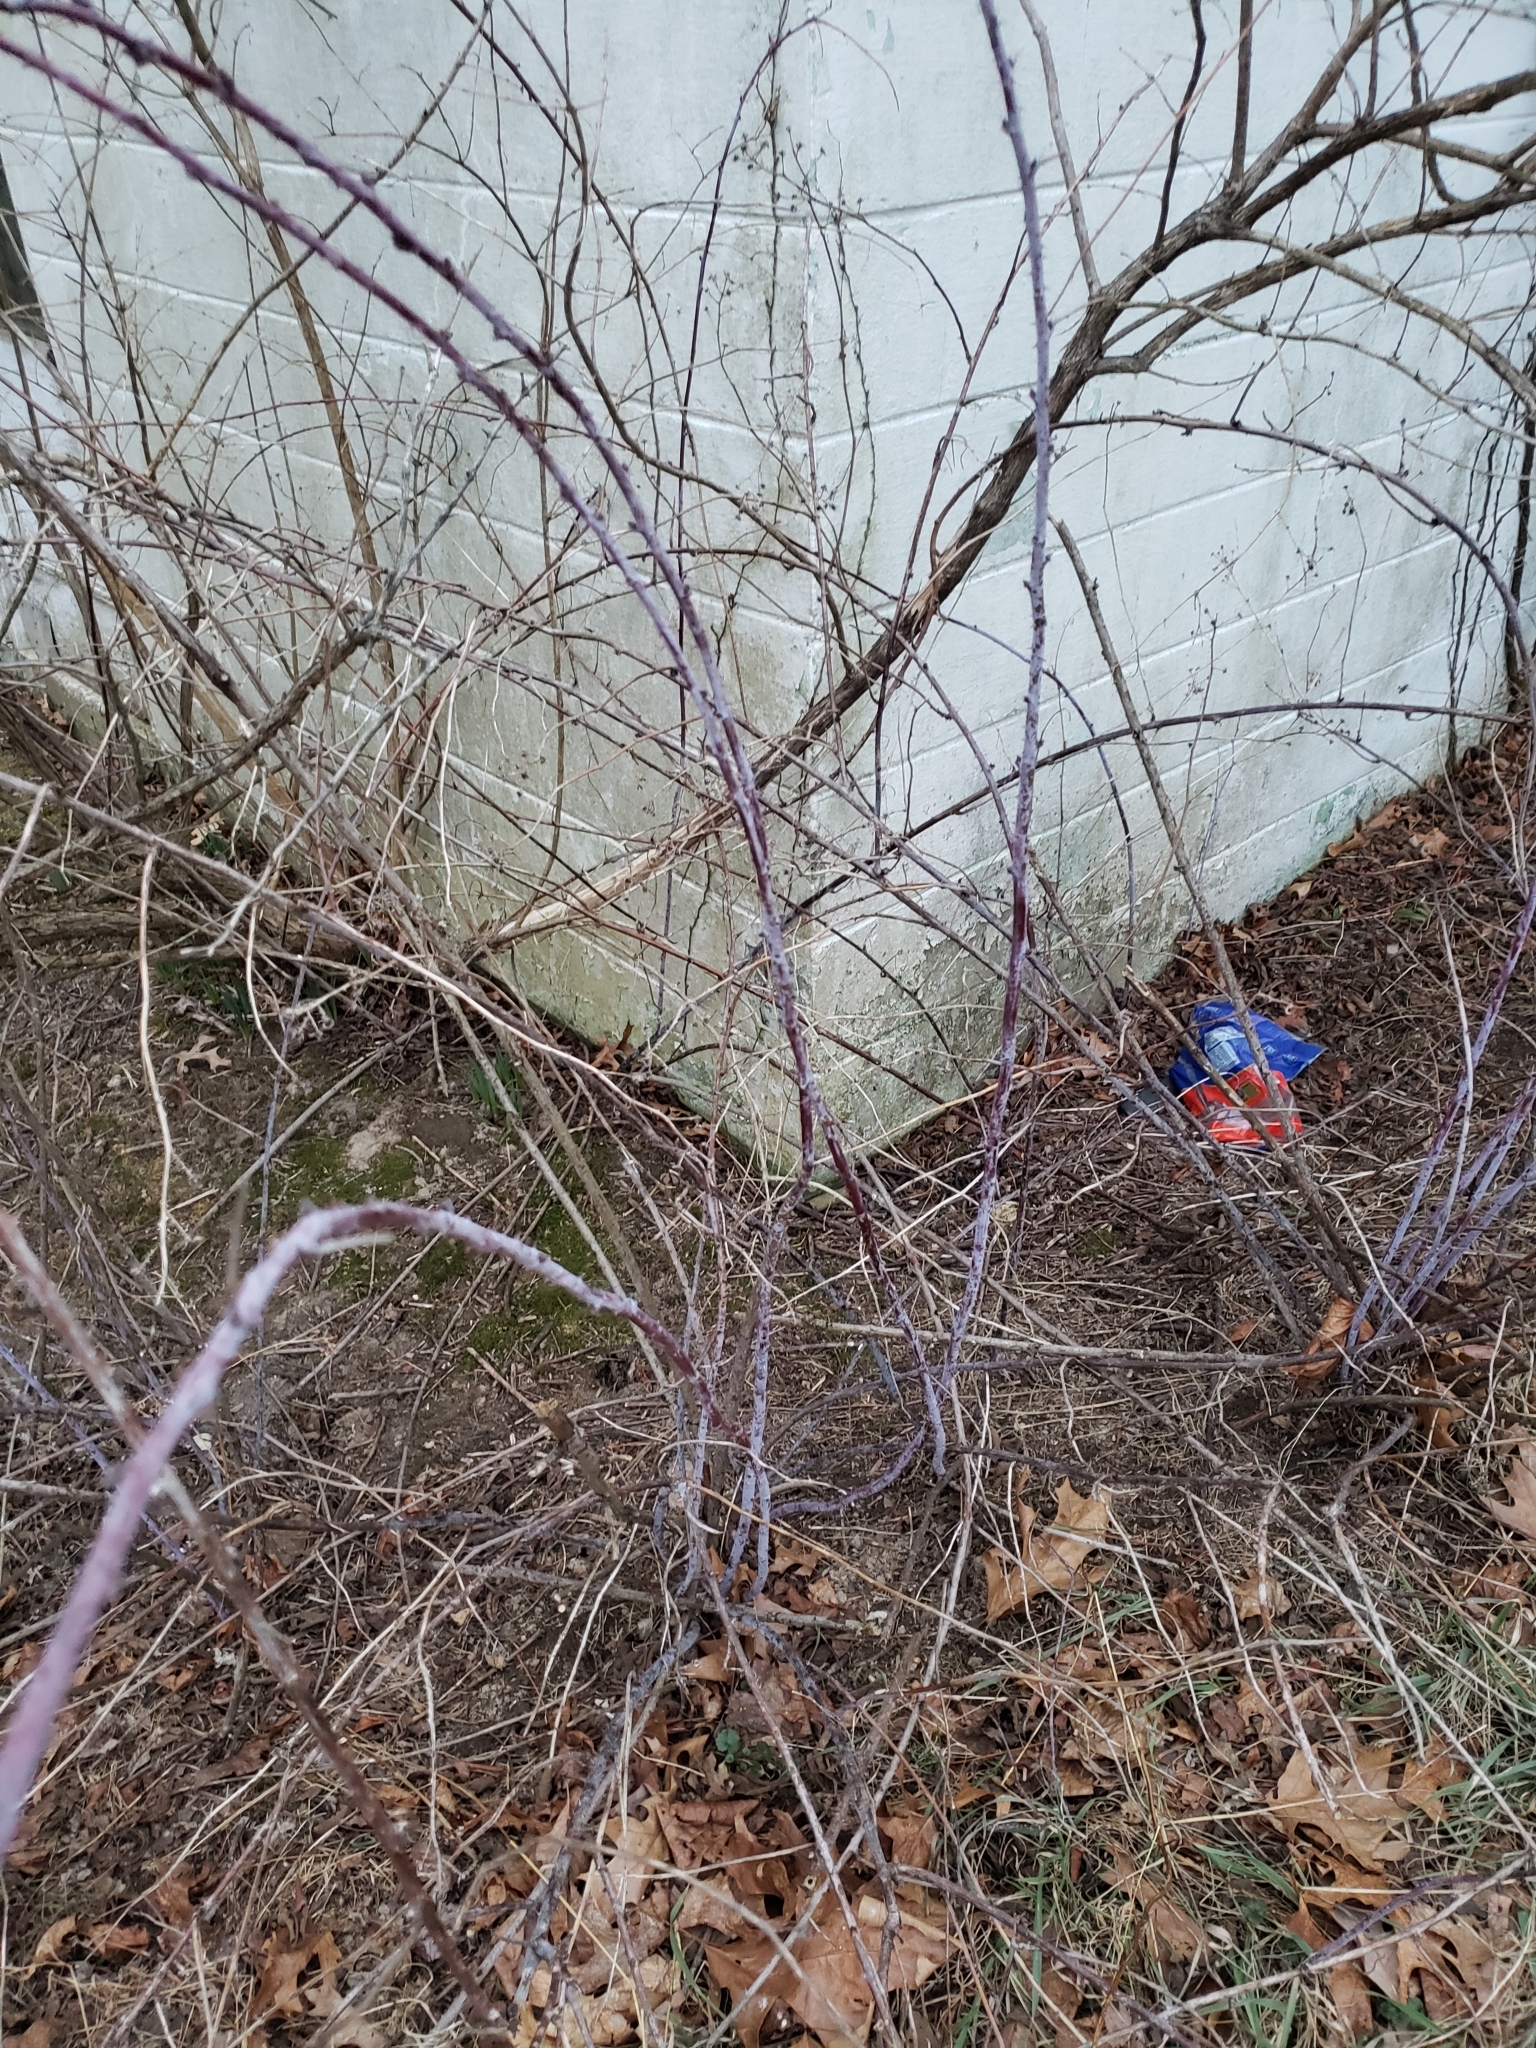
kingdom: Plantae
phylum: Tracheophyta
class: Magnoliopsida
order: Rosales
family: Rosaceae
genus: Rubus
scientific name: Rubus occidentalis
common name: Black raspberry
